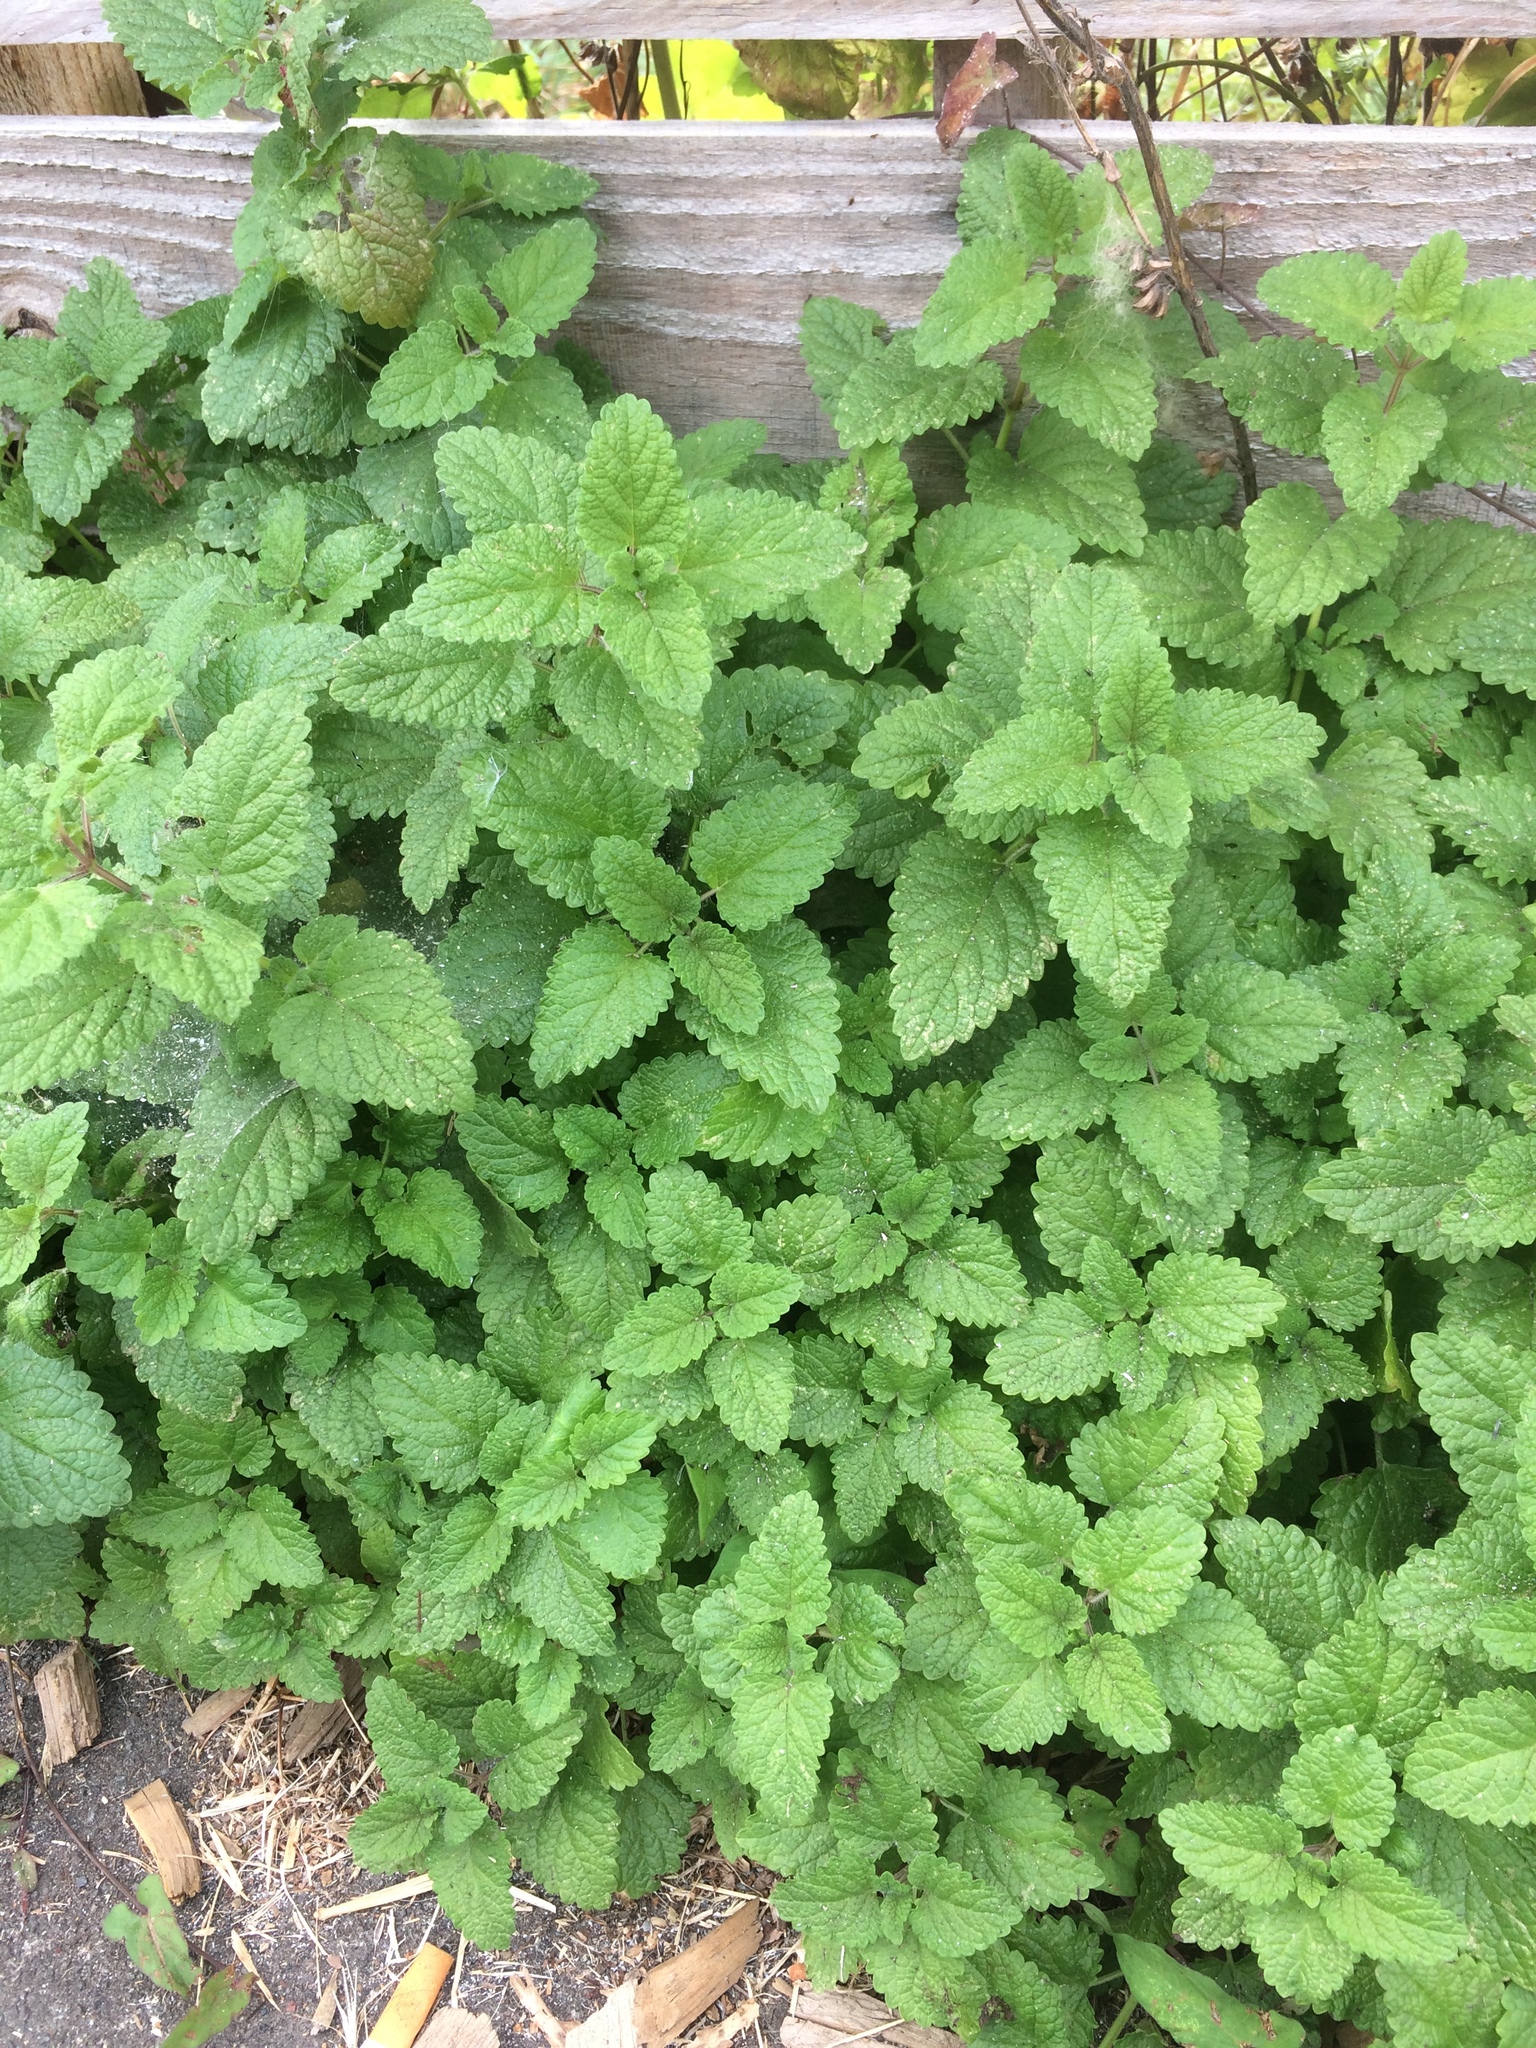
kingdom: Plantae
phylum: Tracheophyta
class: Magnoliopsida
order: Lamiales
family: Lamiaceae
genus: Melissa
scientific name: Melissa officinalis
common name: Balm
